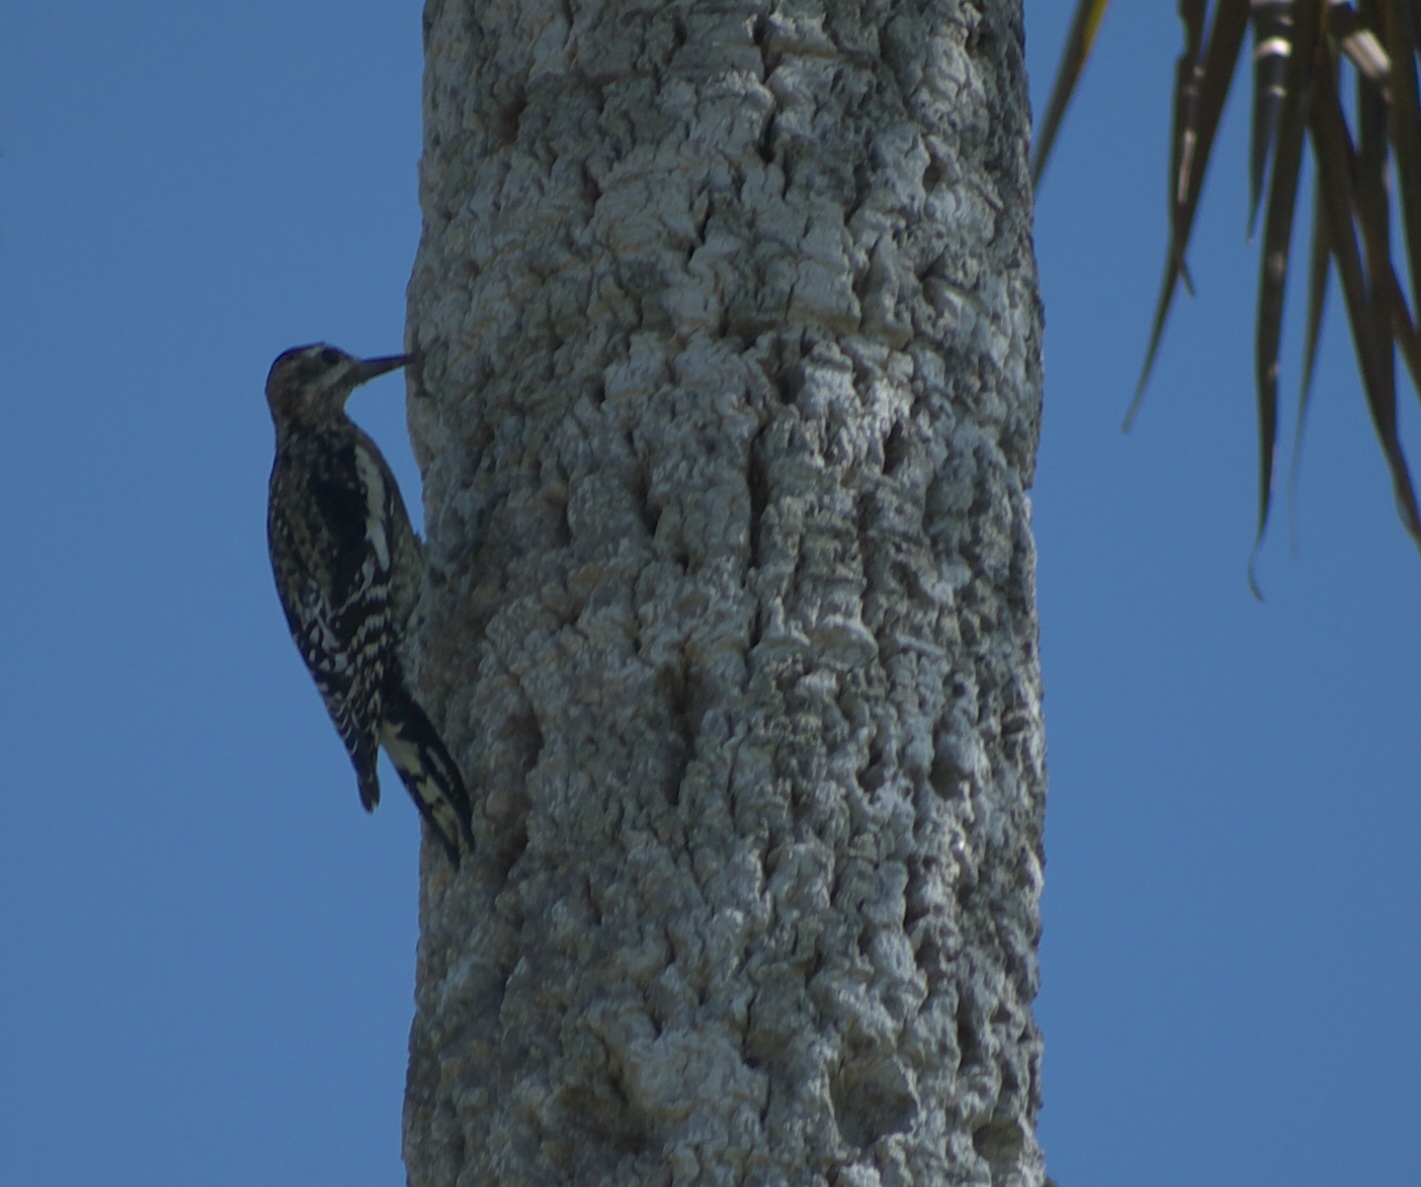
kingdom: Animalia
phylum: Chordata
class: Aves
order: Piciformes
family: Picidae
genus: Sphyrapicus
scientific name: Sphyrapicus varius
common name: Yellow-bellied sapsucker
